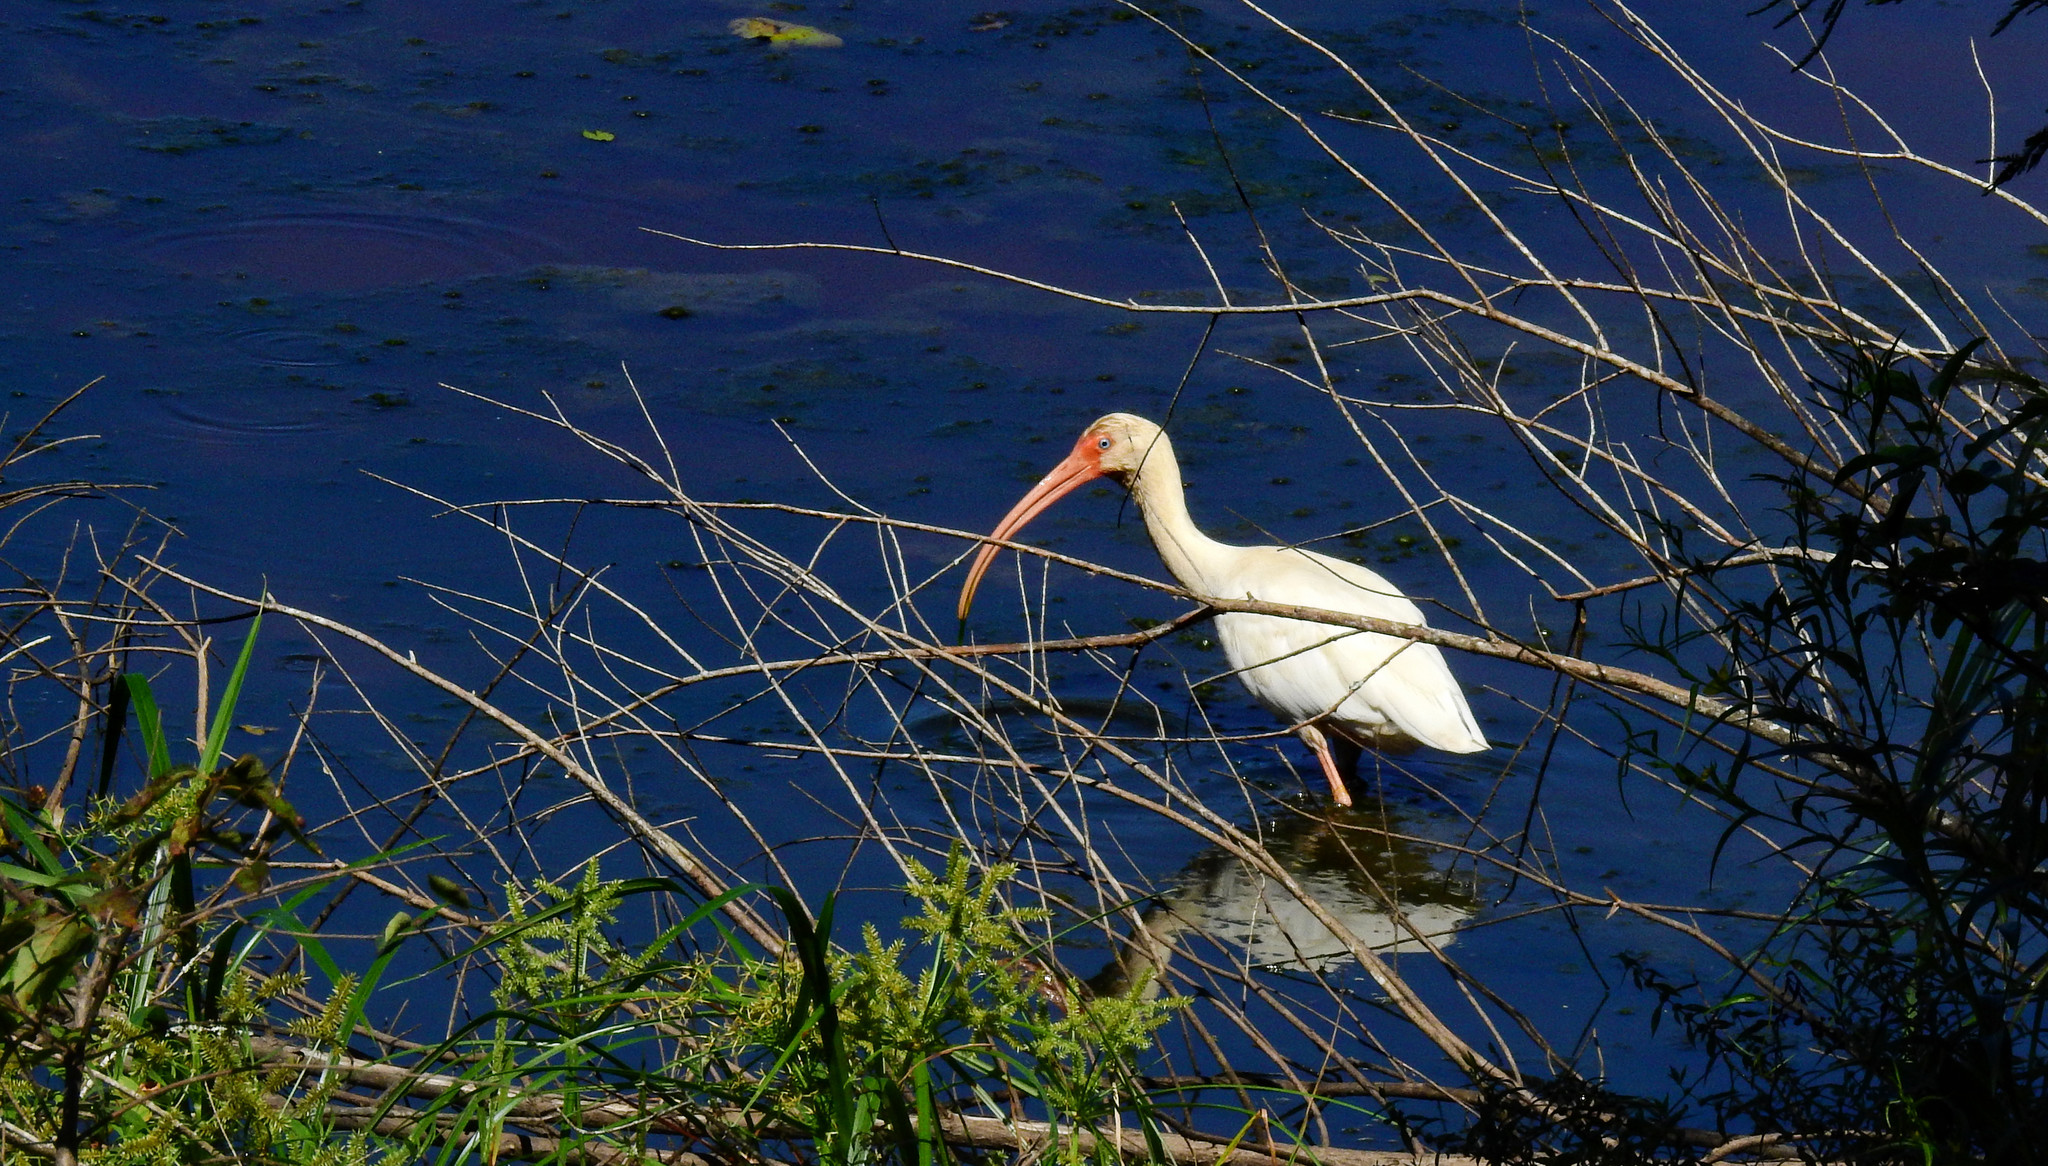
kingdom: Animalia
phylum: Chordata
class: Aves
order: Pelecaniformes
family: Threskiornithidae
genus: Eudocimus
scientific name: Eudocimus albus
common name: White ibis
